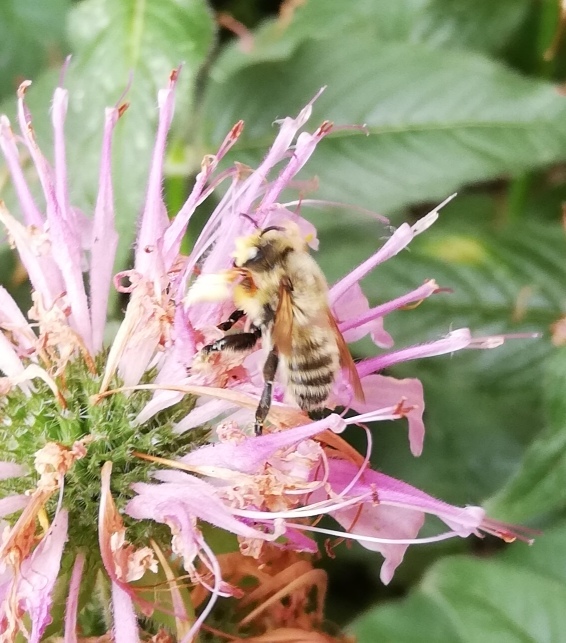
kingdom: Animalia
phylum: Arthropoda
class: Insecta
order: Hymenoptera
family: Megachilidae
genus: Megachile
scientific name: Megachile latimanus
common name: Leafcutting bee
